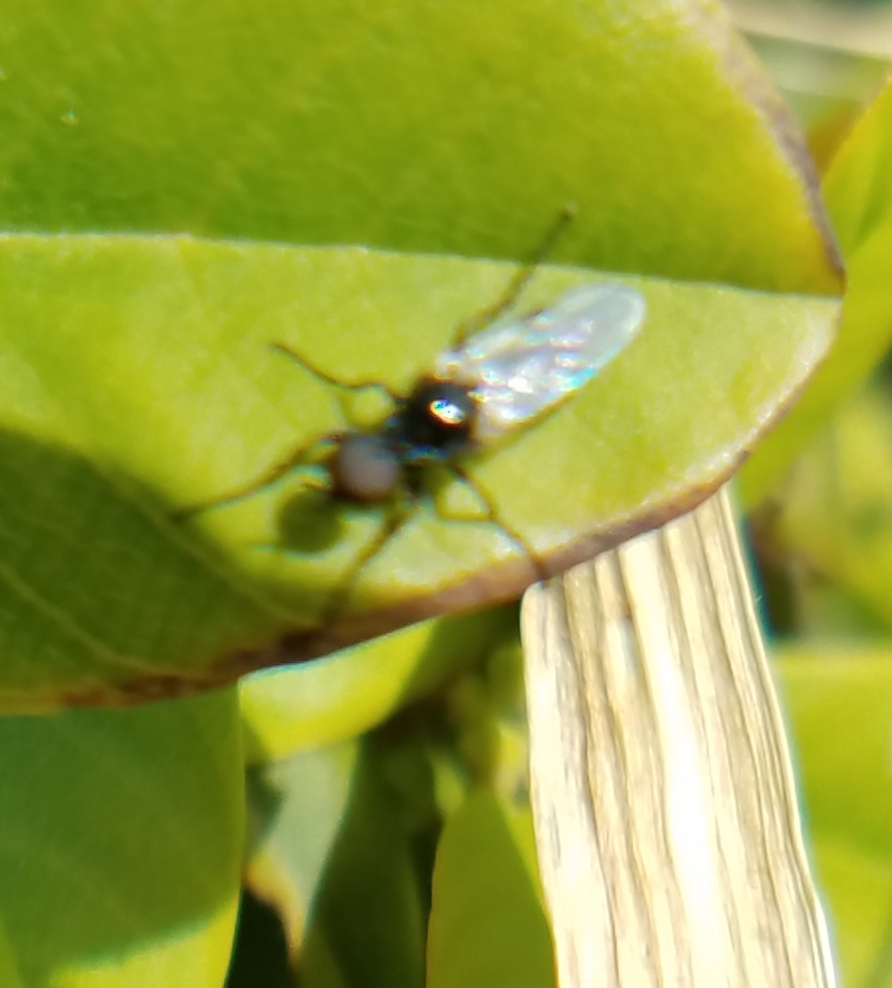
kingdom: Animalia
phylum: Arthropoda
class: Insecta
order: Diptera
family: Bibionidae
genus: Dilophus
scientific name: Dilophus
